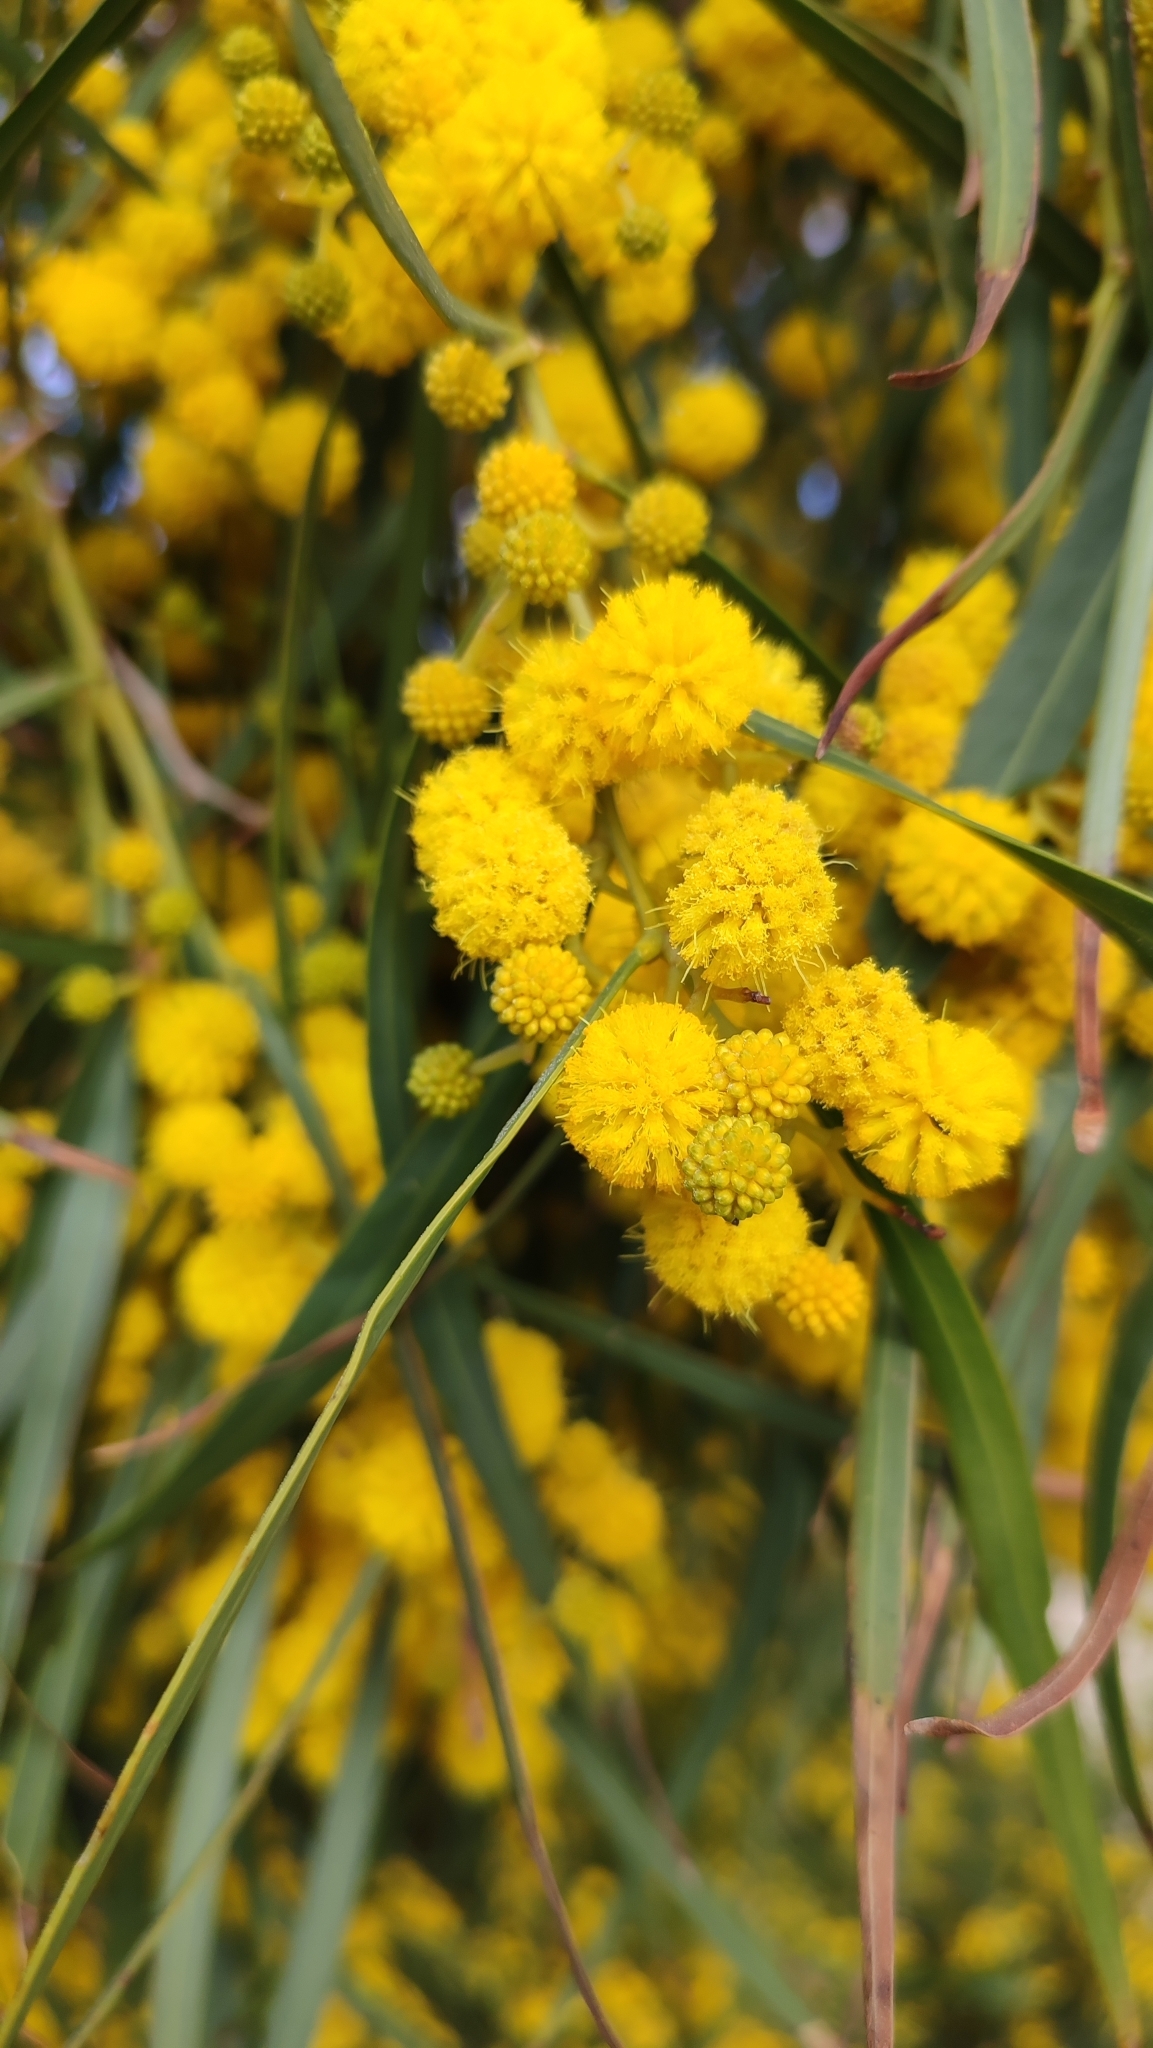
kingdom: Plantae
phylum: Tracheophyta
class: Magnoliopsida
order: Fabales
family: Fabaceae
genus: Acacia
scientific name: Acacia saligna
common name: Orange wattle
